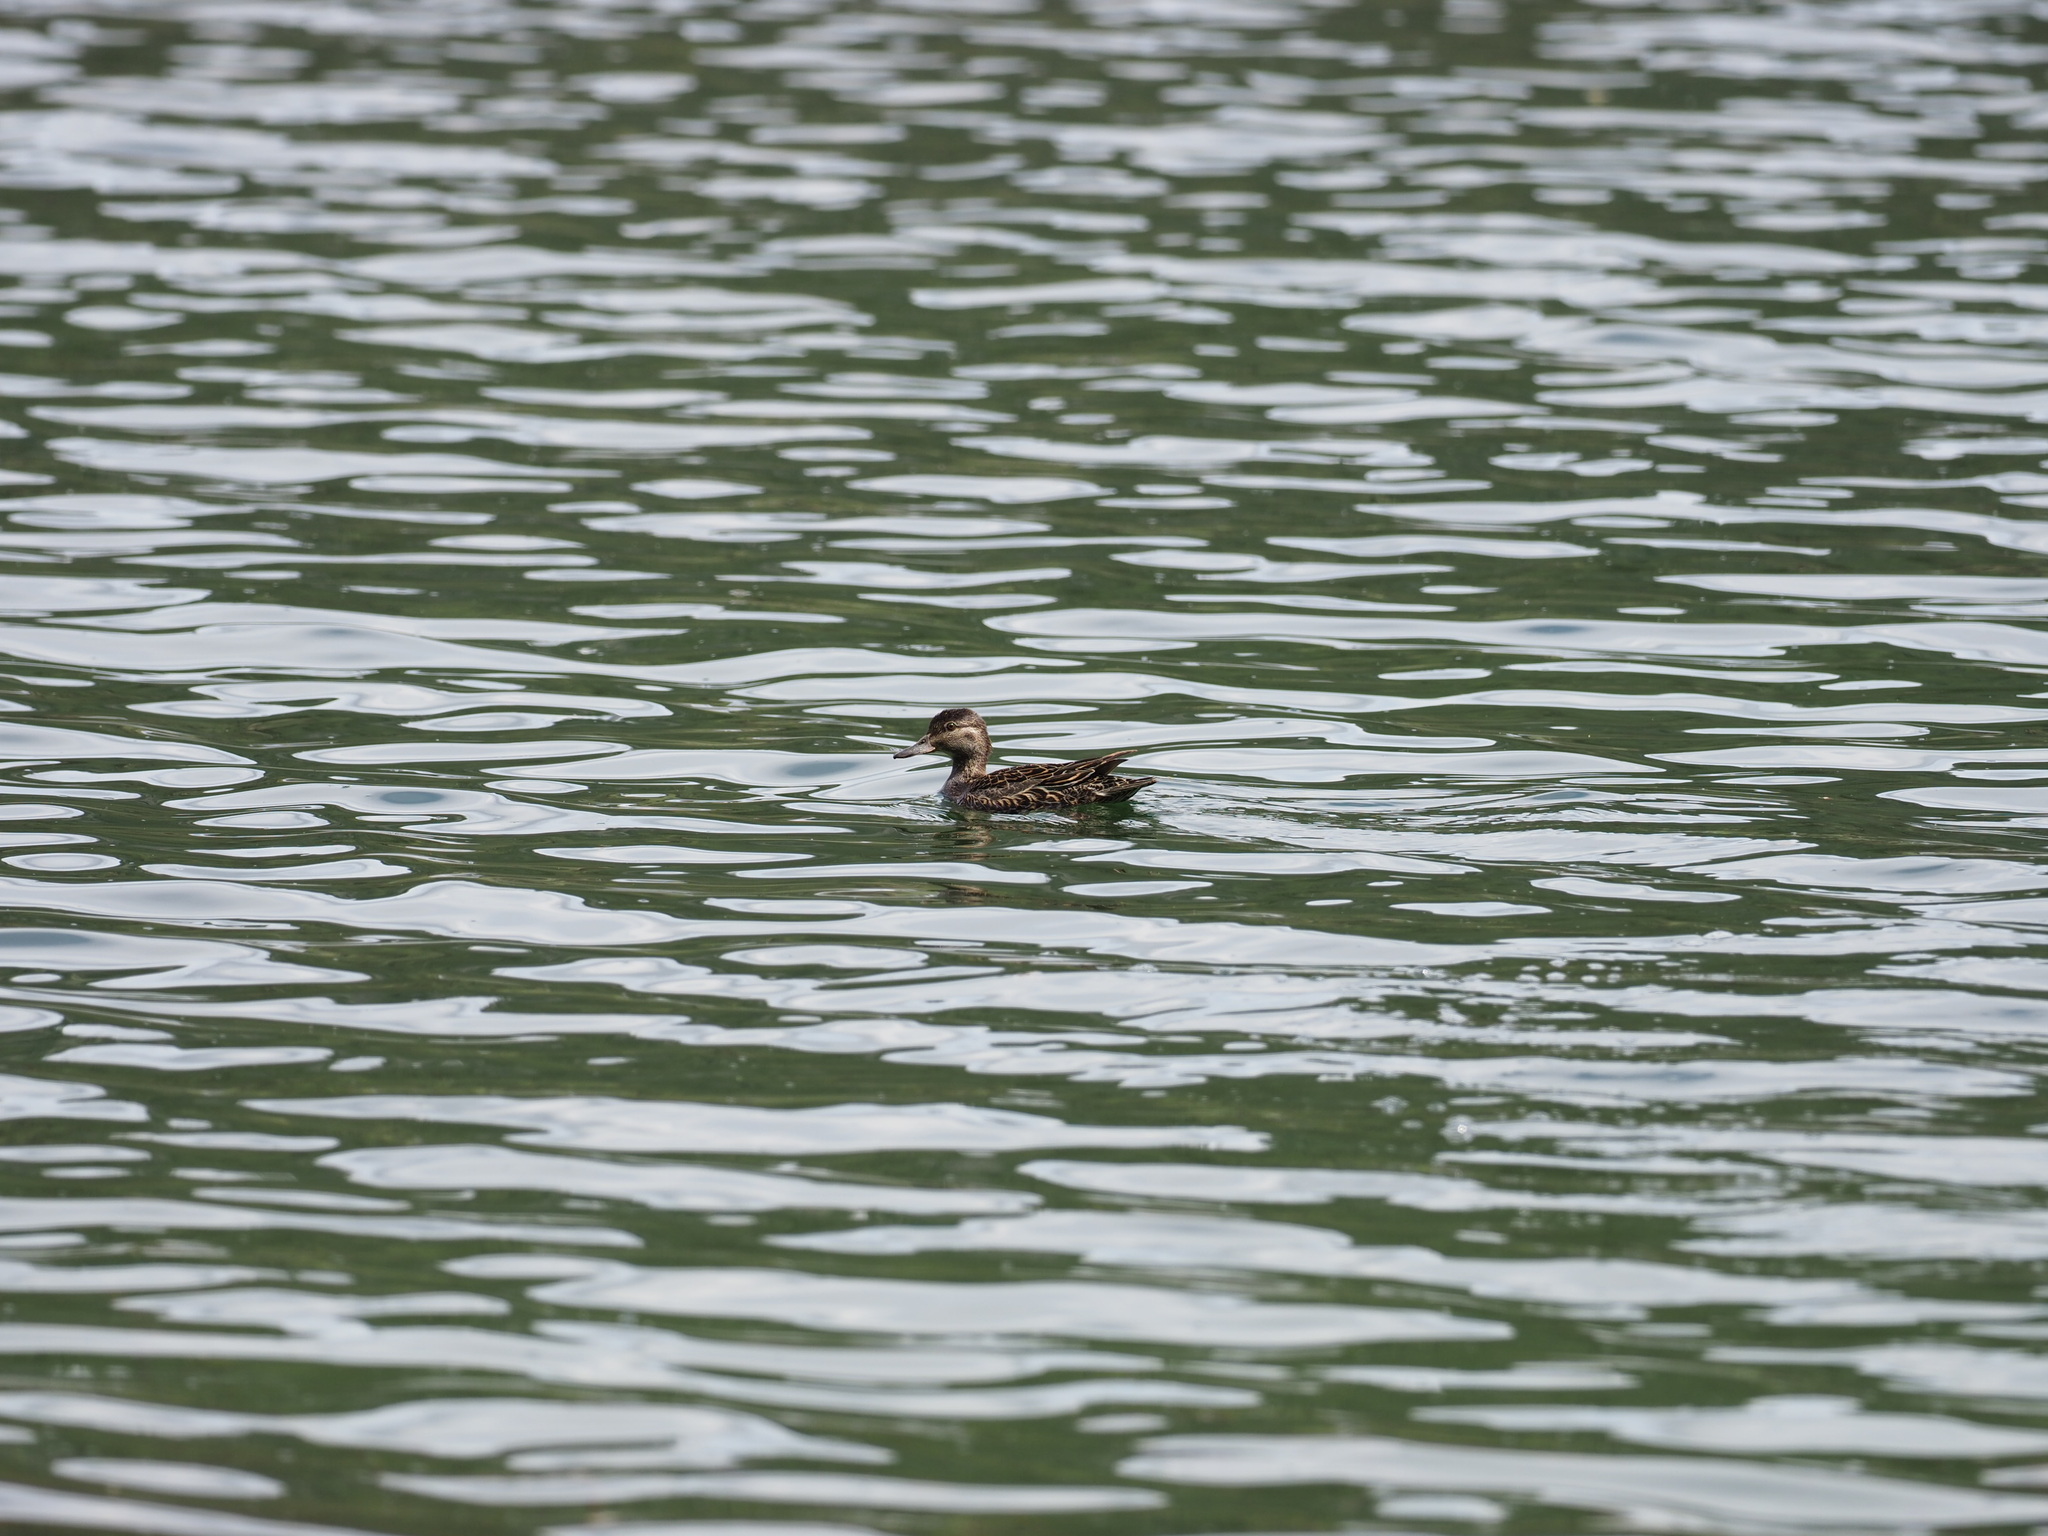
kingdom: Animalia
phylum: Chordata
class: Aves
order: Anseriformes
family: Anatidae
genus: Anas
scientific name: Anas crecca
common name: Eurasian teal
